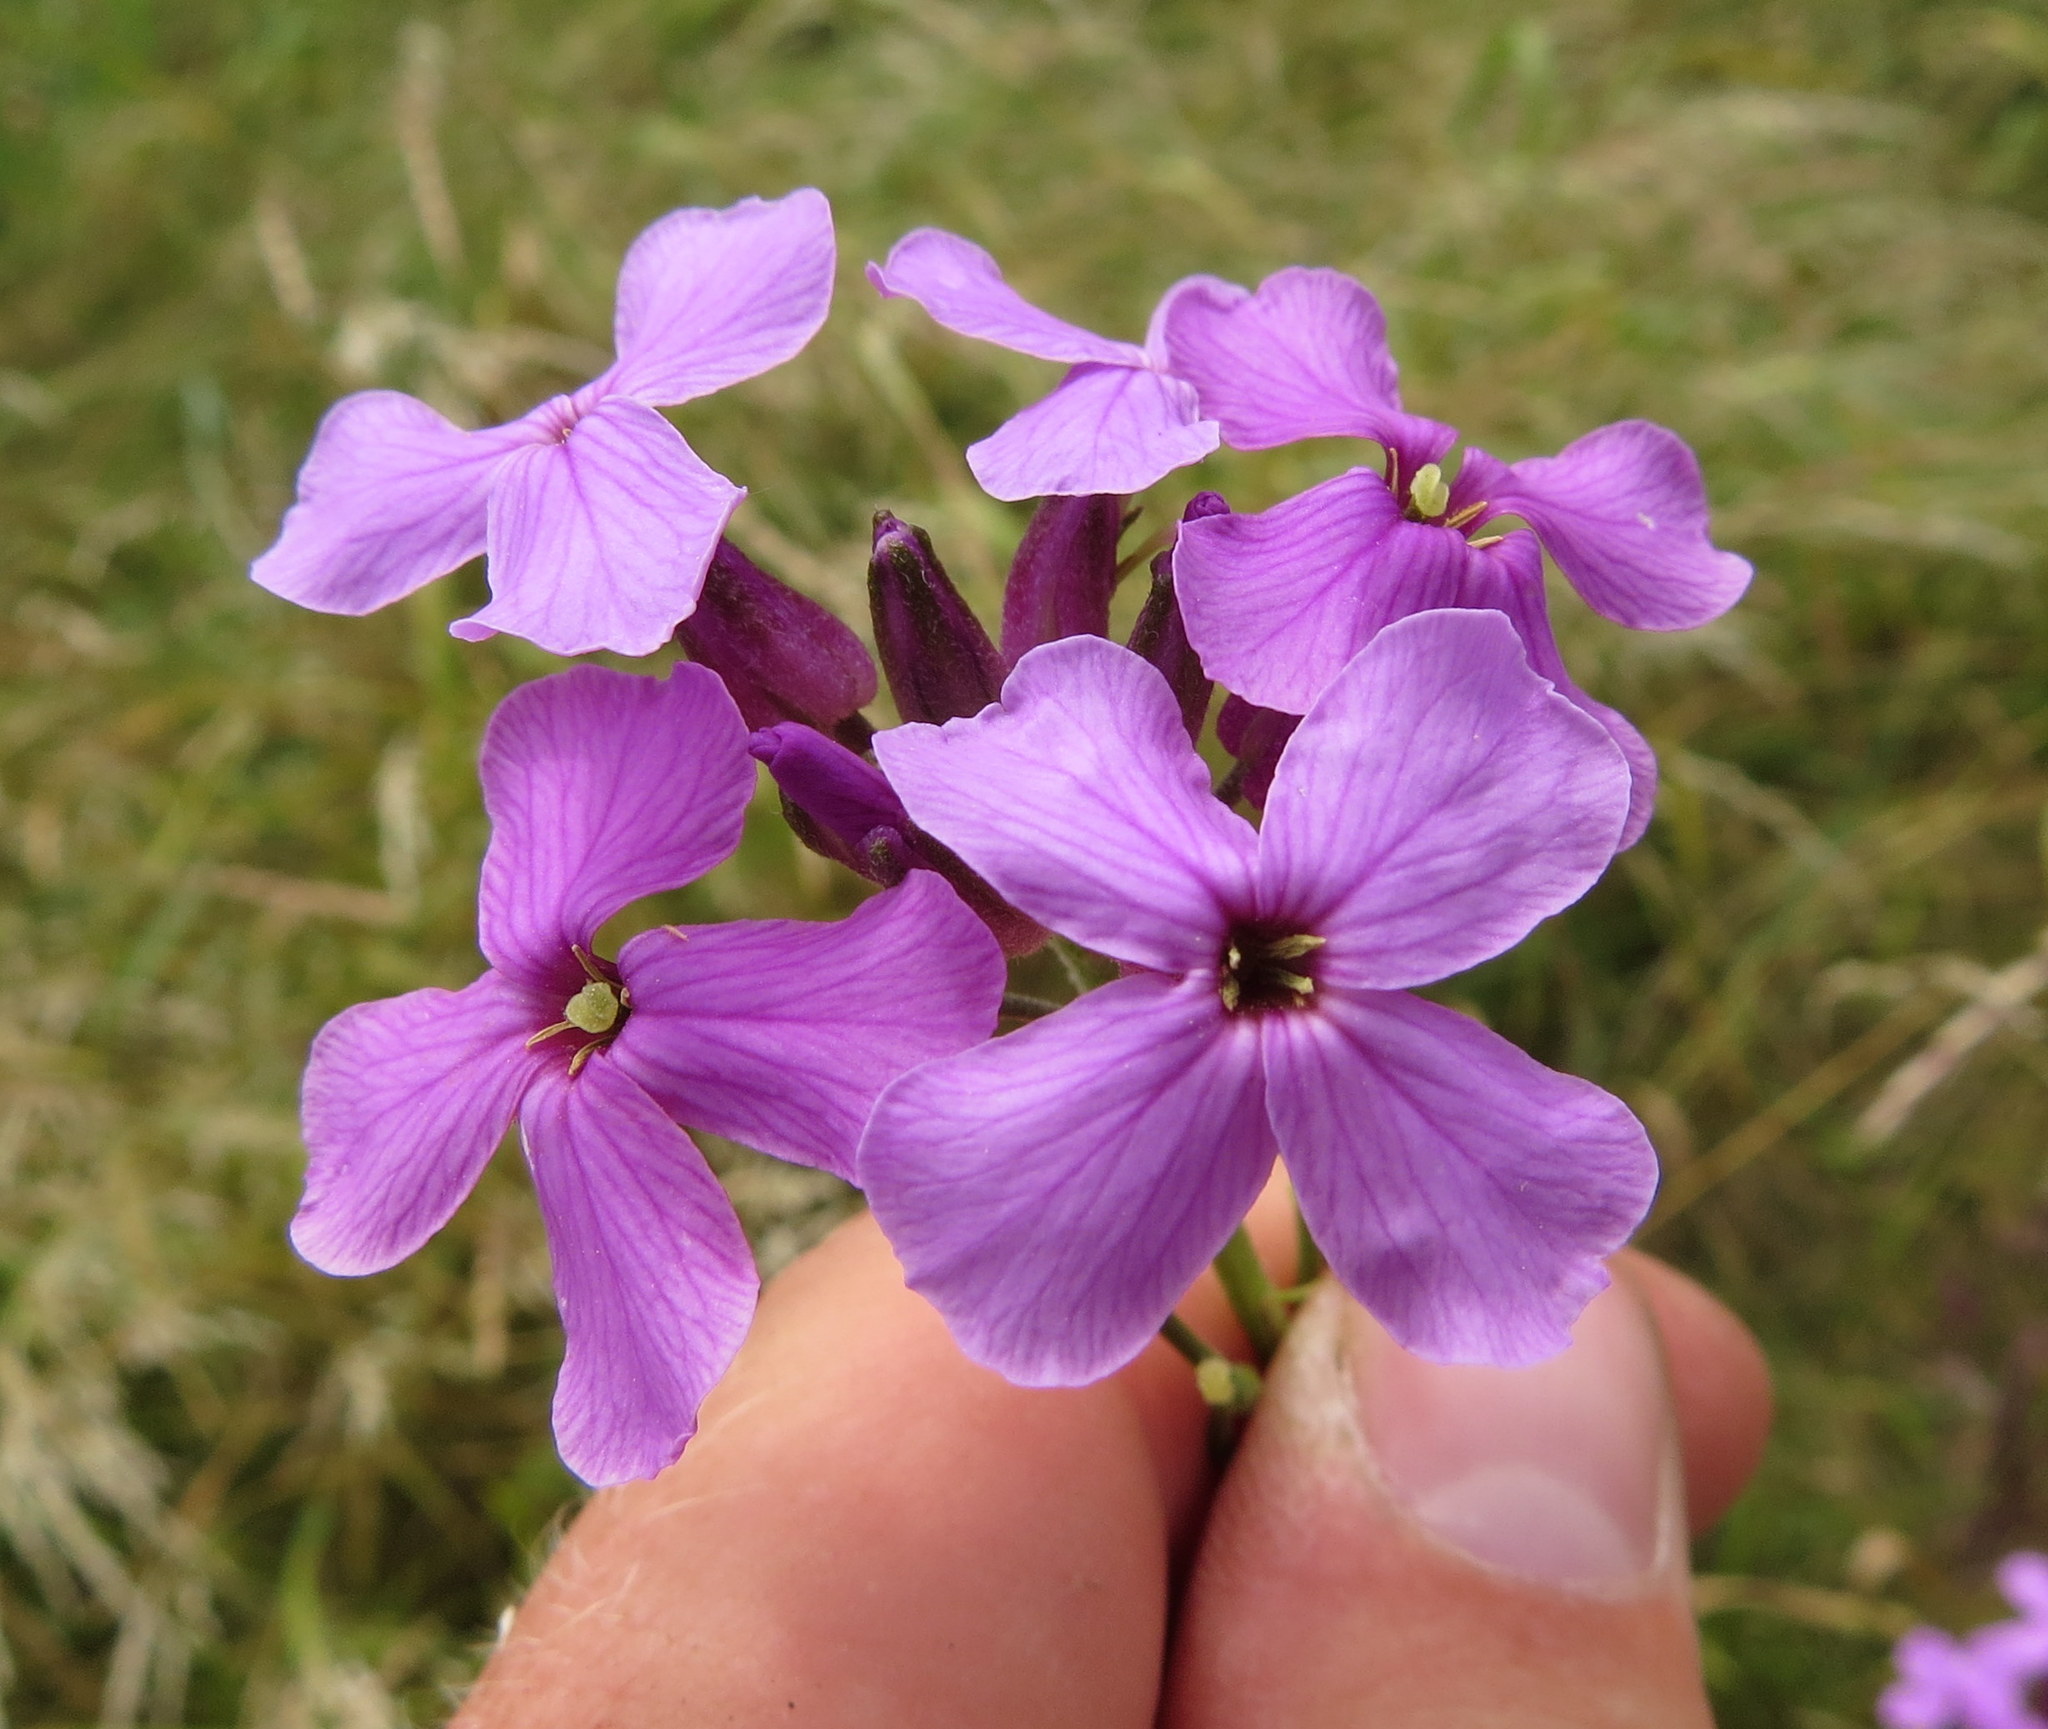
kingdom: Plantae
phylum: Tracheophyta
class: Magnoliopsida
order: Brassicales
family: Brassicaceae
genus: Hesperis
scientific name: Hesperis matronalis
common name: Dame's-violet
